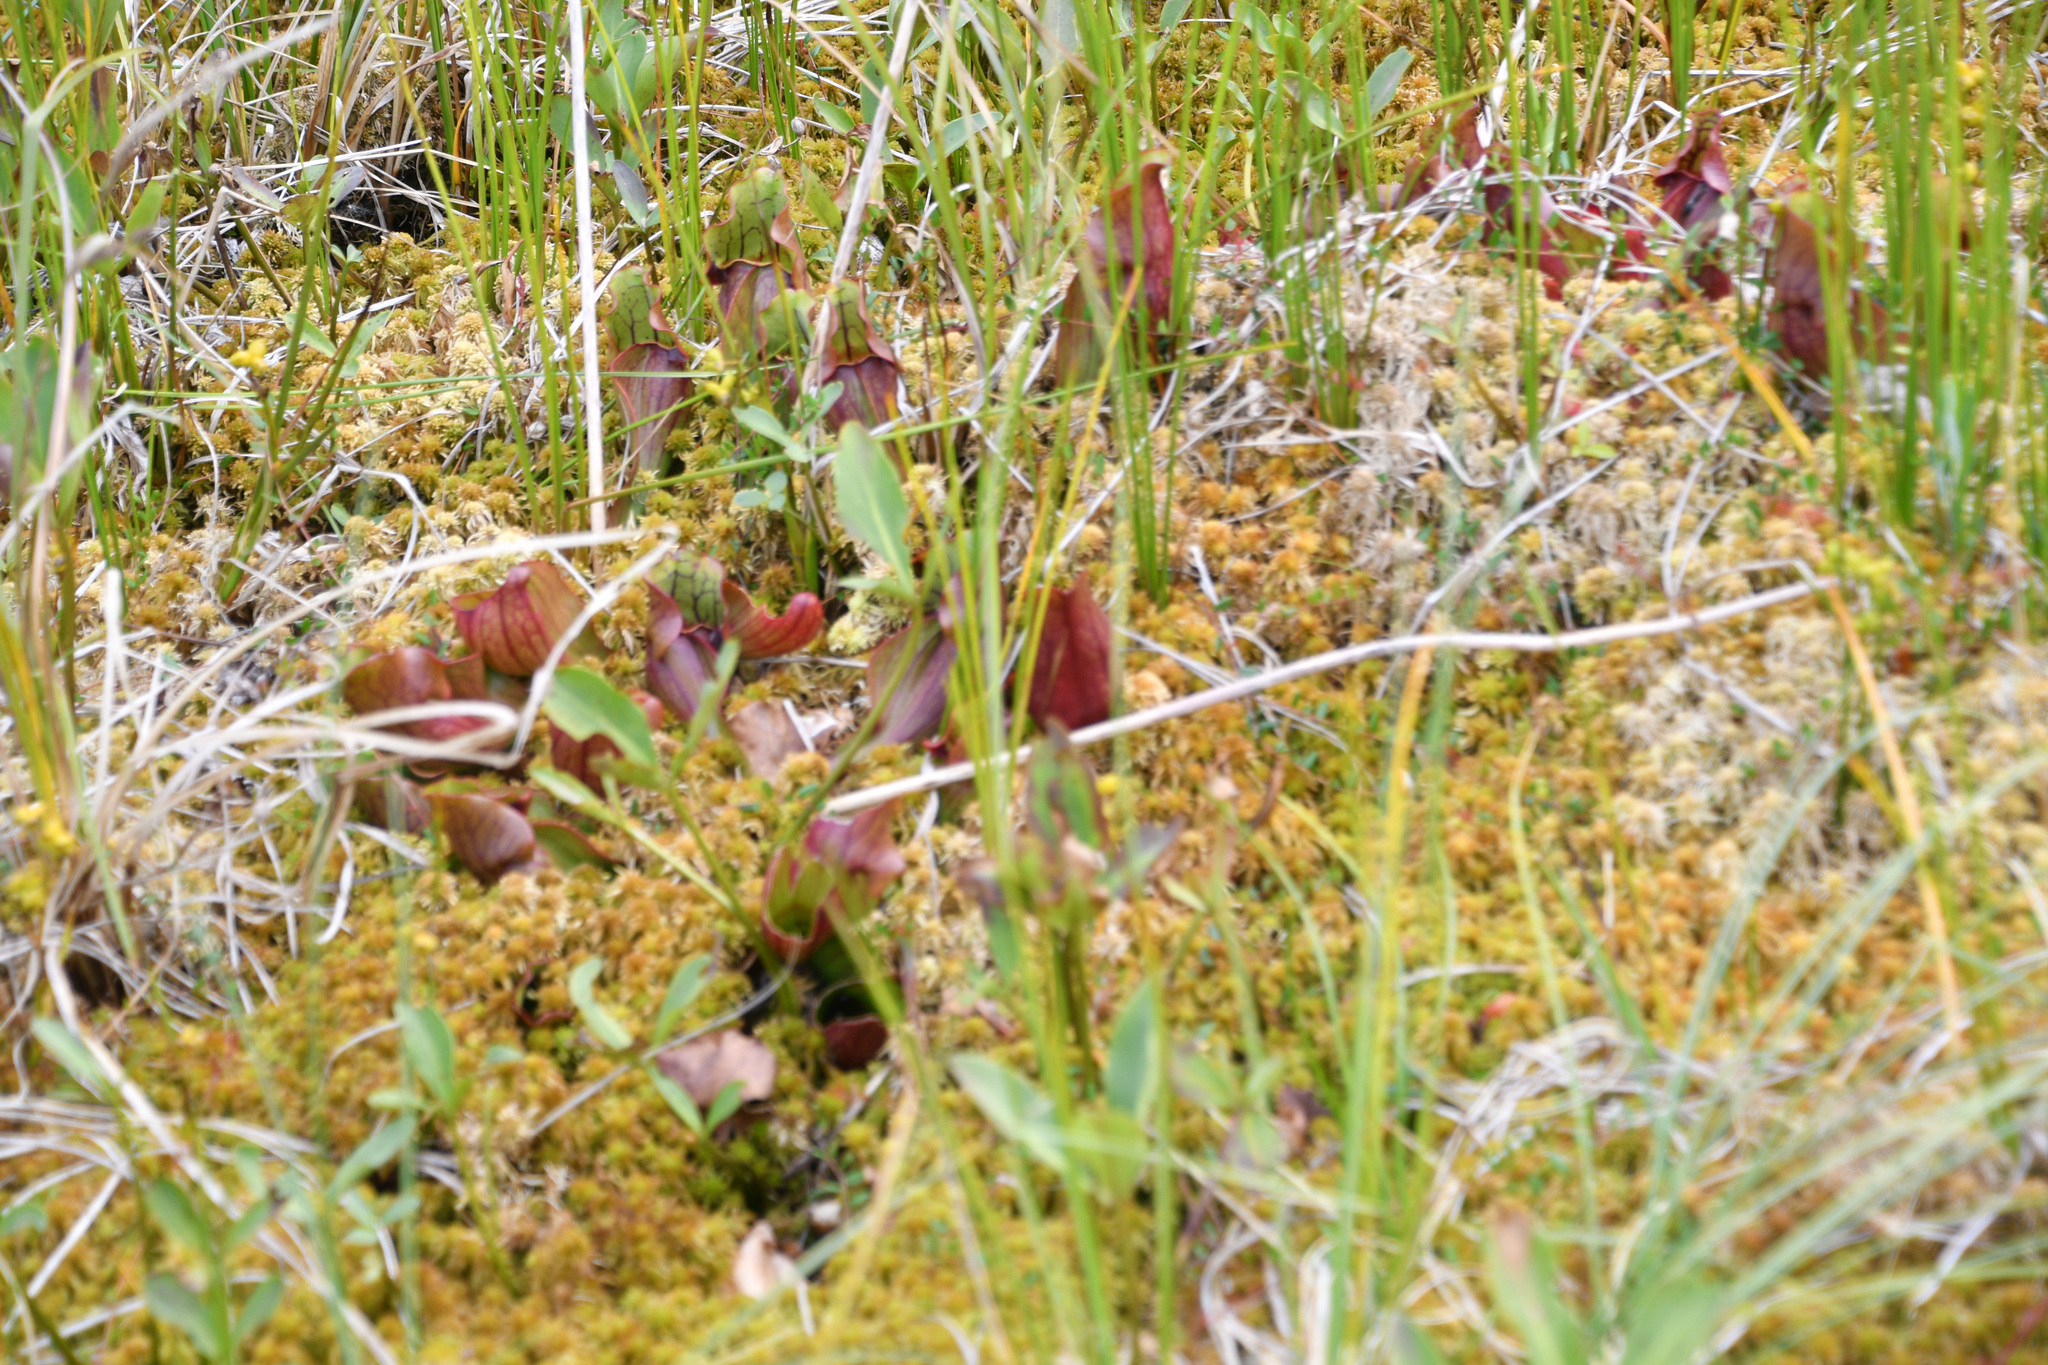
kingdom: Plantae
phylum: Tracheophyta
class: Magnoliopsida
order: Ericales
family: Sarraceniaceae
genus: Sarracenia
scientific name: Sarracenia purpurea
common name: Pitcherplant
